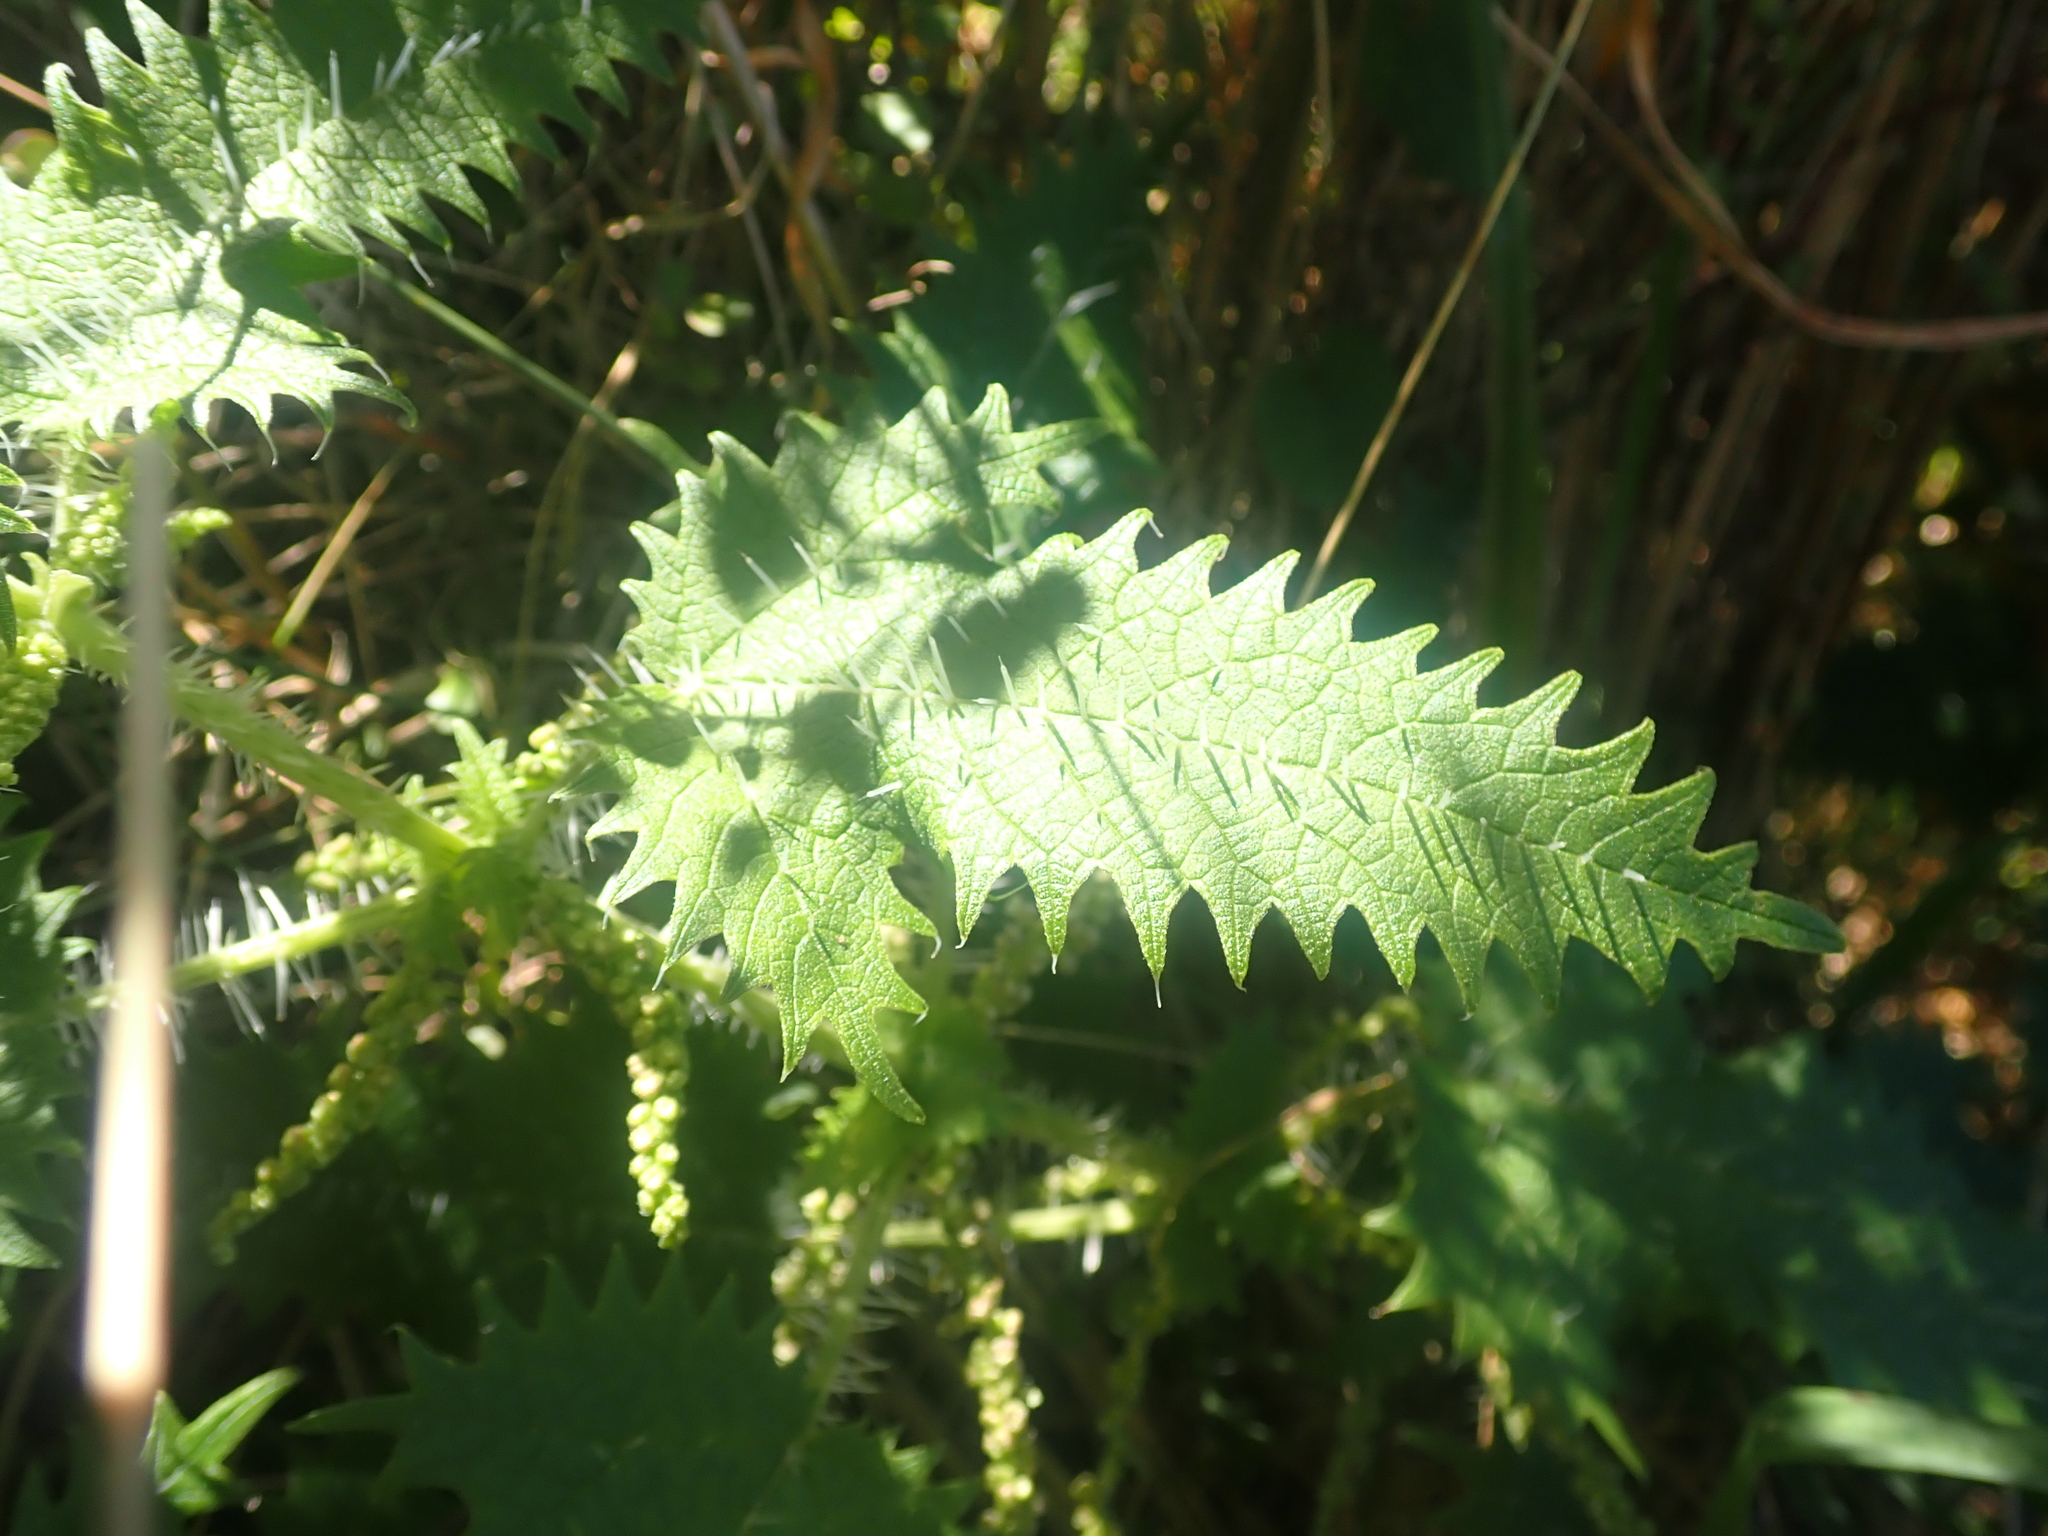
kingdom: Plantae
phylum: Tracheophyta
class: Magnoliopsida
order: Rosales
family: Urticaceae
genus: Urtica
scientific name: Urtica ferox
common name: Tree nettle
